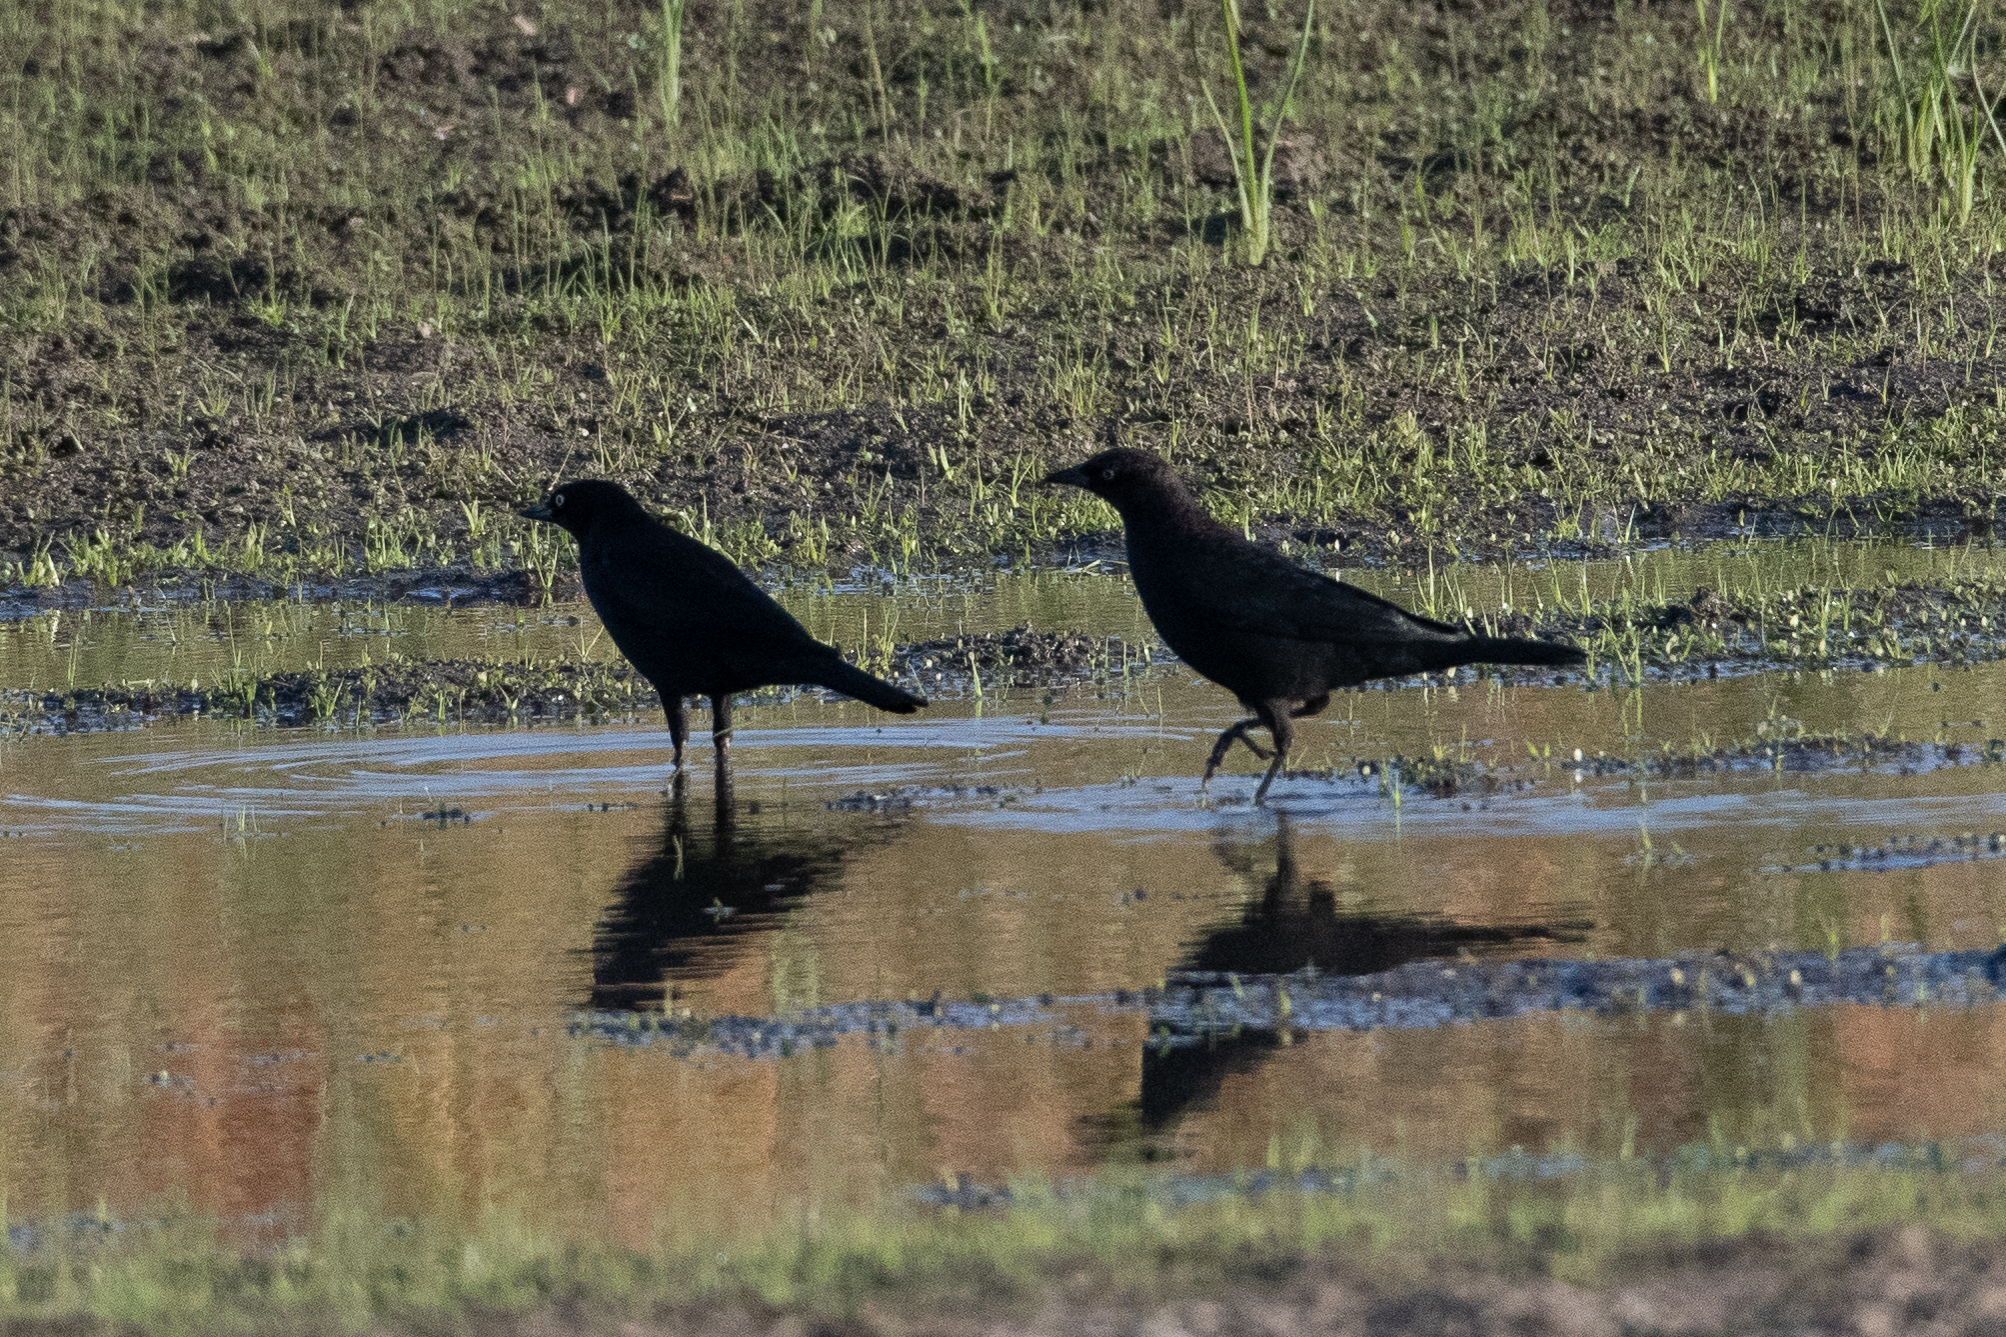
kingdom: Animalia
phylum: Chordata
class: Aves
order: Passeriformes
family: Icteridae
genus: Euphagus
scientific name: Euphagus cyanocephalus
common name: Brewer's blackbird
